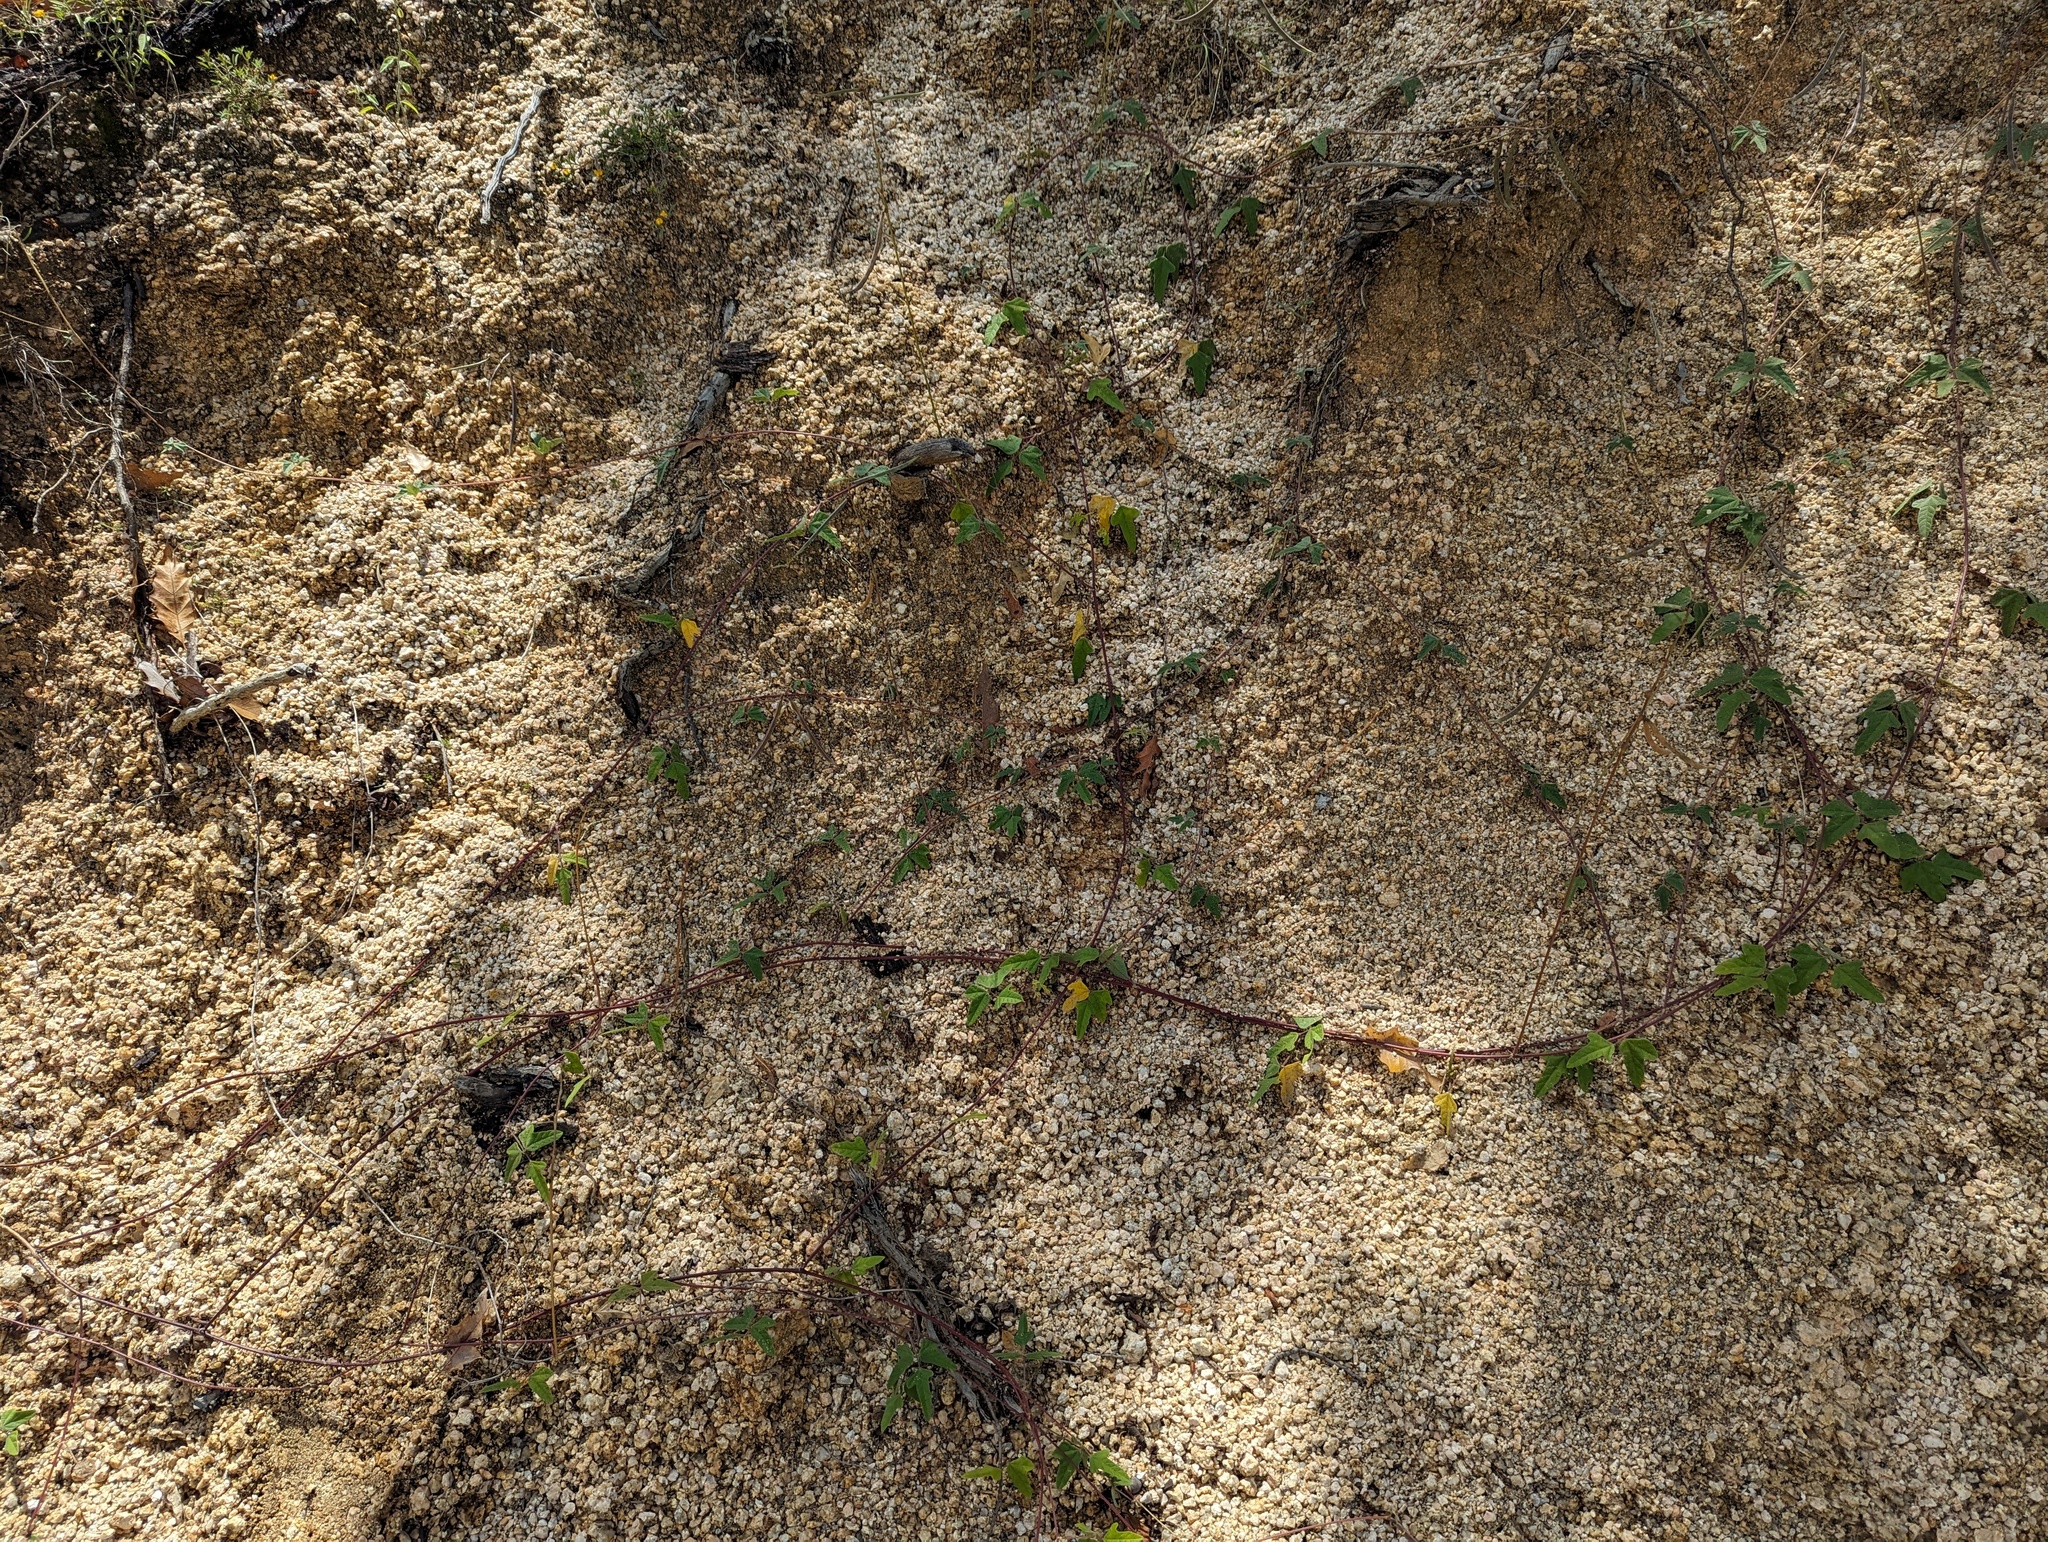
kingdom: Plantae
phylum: Tracheophyta
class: Magnoliopsida
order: Fabales
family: Fabaceae
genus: Macroptilium
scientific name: Macroptilium atropurpureum
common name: Purple bushbean
